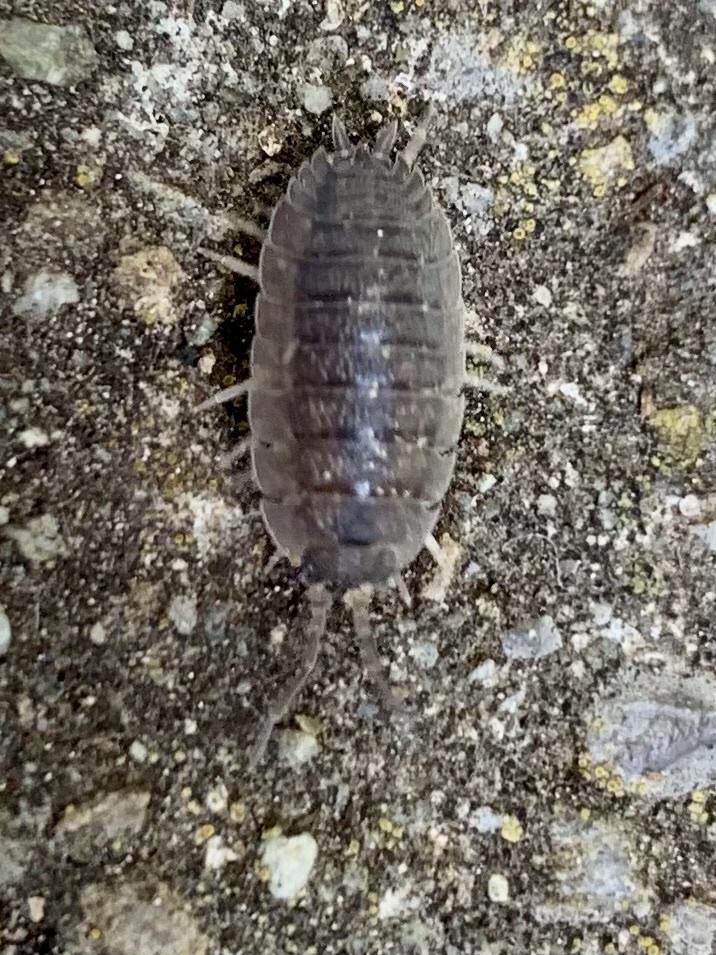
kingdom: Animalia
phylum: Arthropoda
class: Malacostraca
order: Isopoda
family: Porcellionidae
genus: Porcellio
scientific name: Porcellio scaber
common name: Common rough woodlouse
